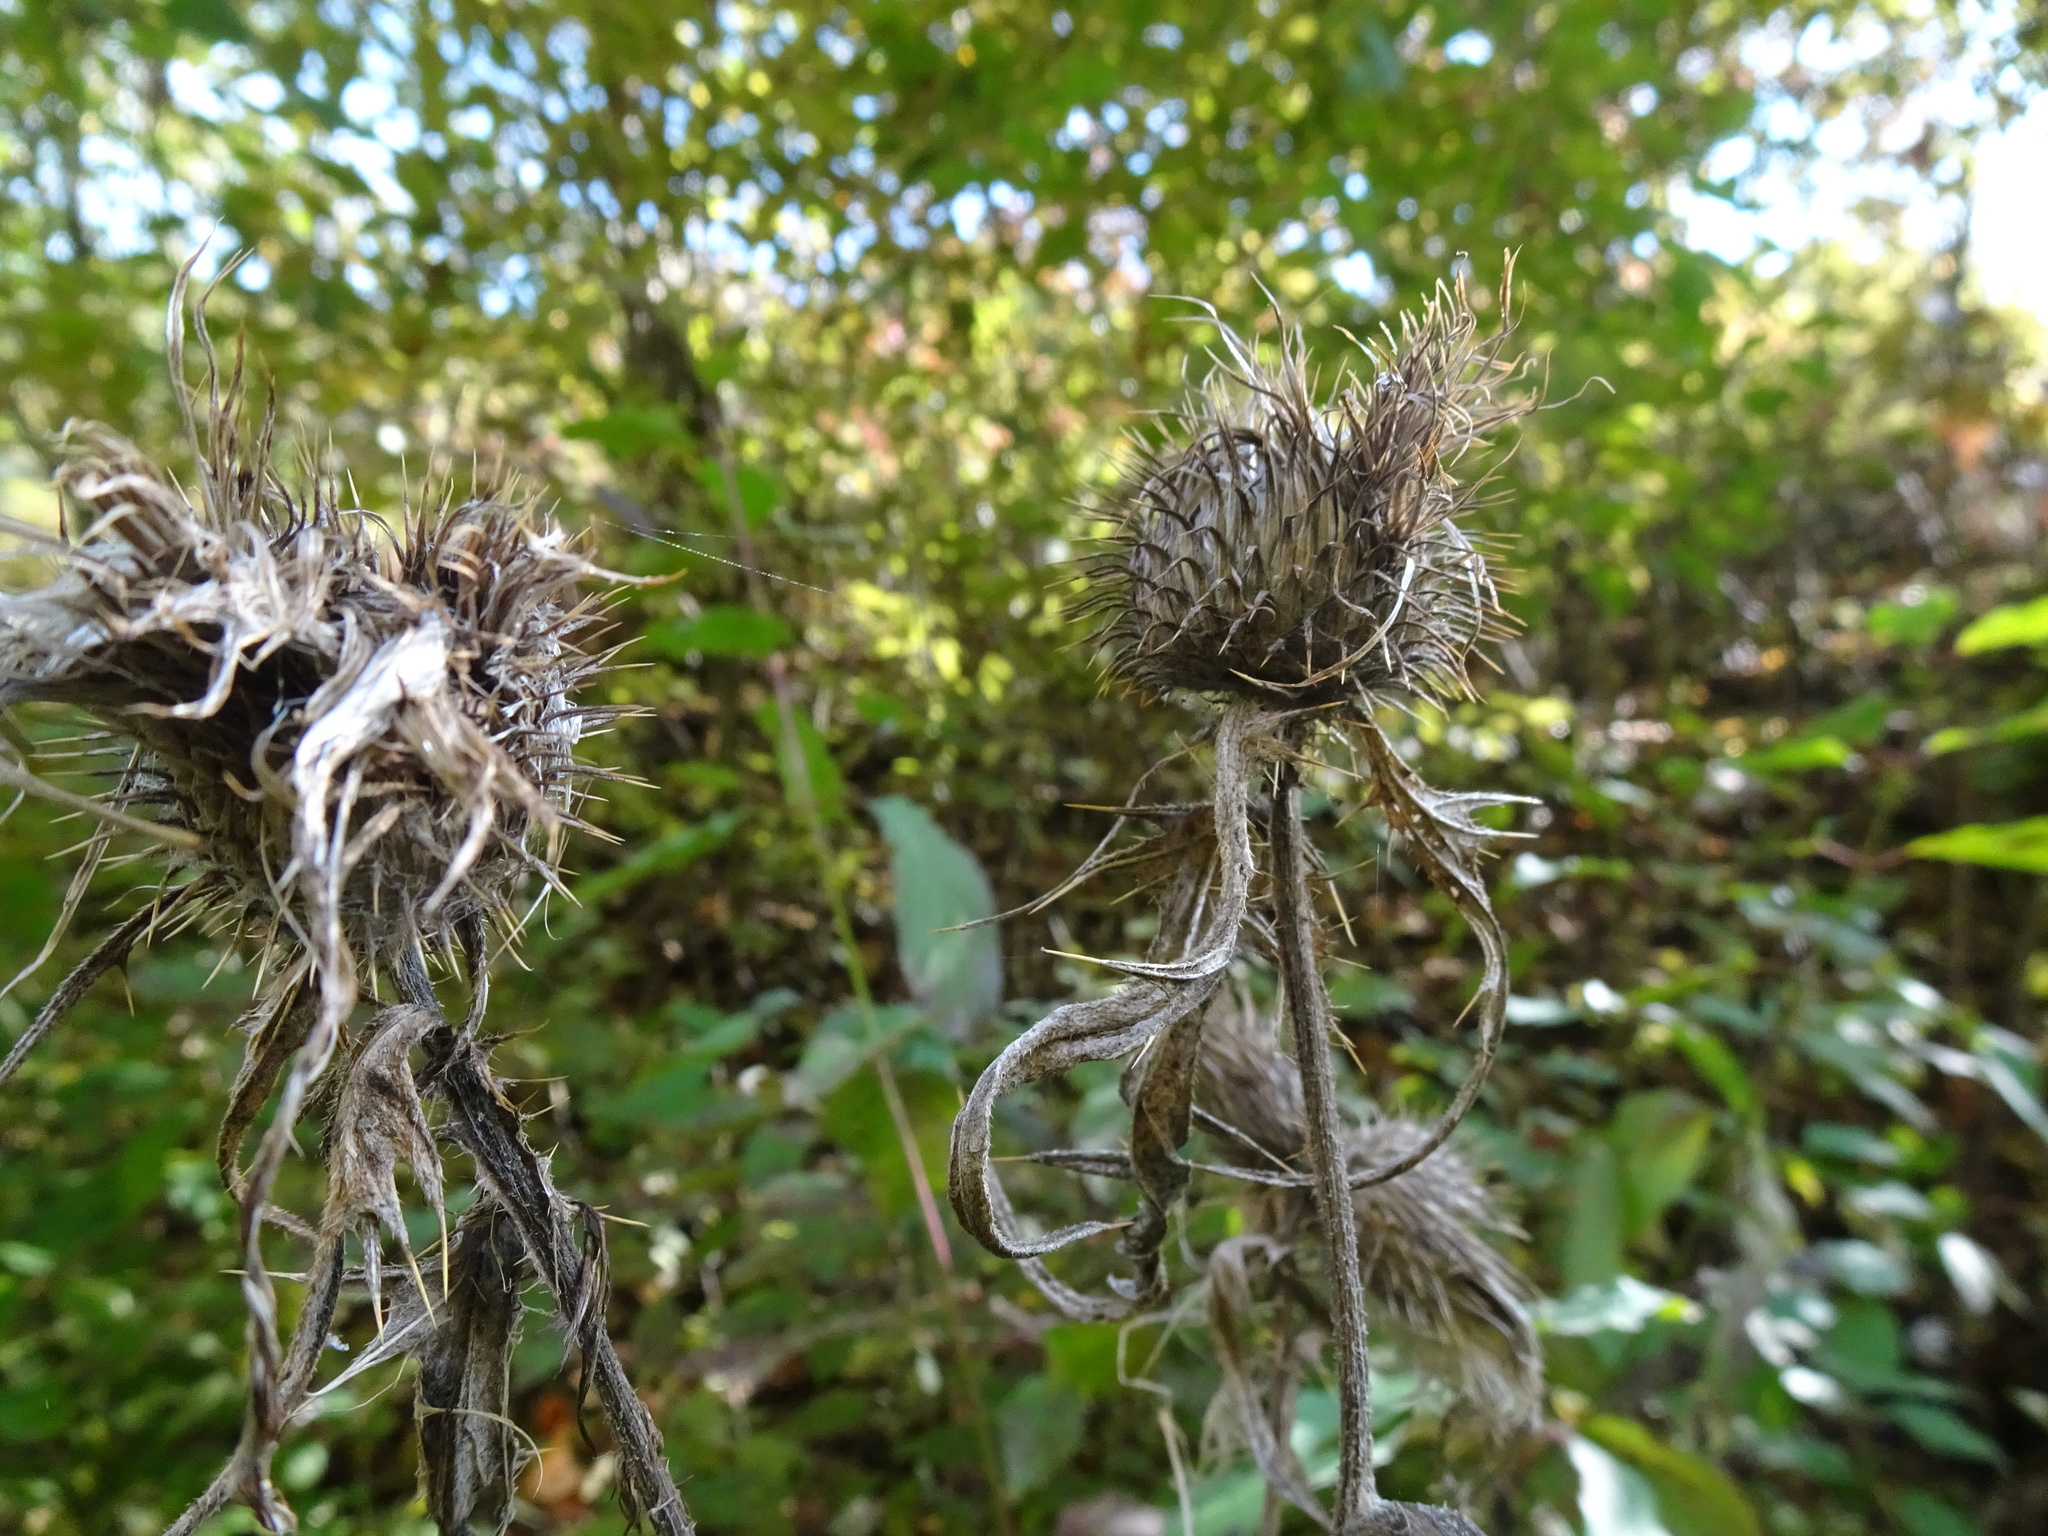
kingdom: Plantae
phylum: Tracheophyta
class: Magnoliopsida
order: Asterales
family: Asteraceae
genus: Cirsium
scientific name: Cirsium vulgare
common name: Bull thistle
